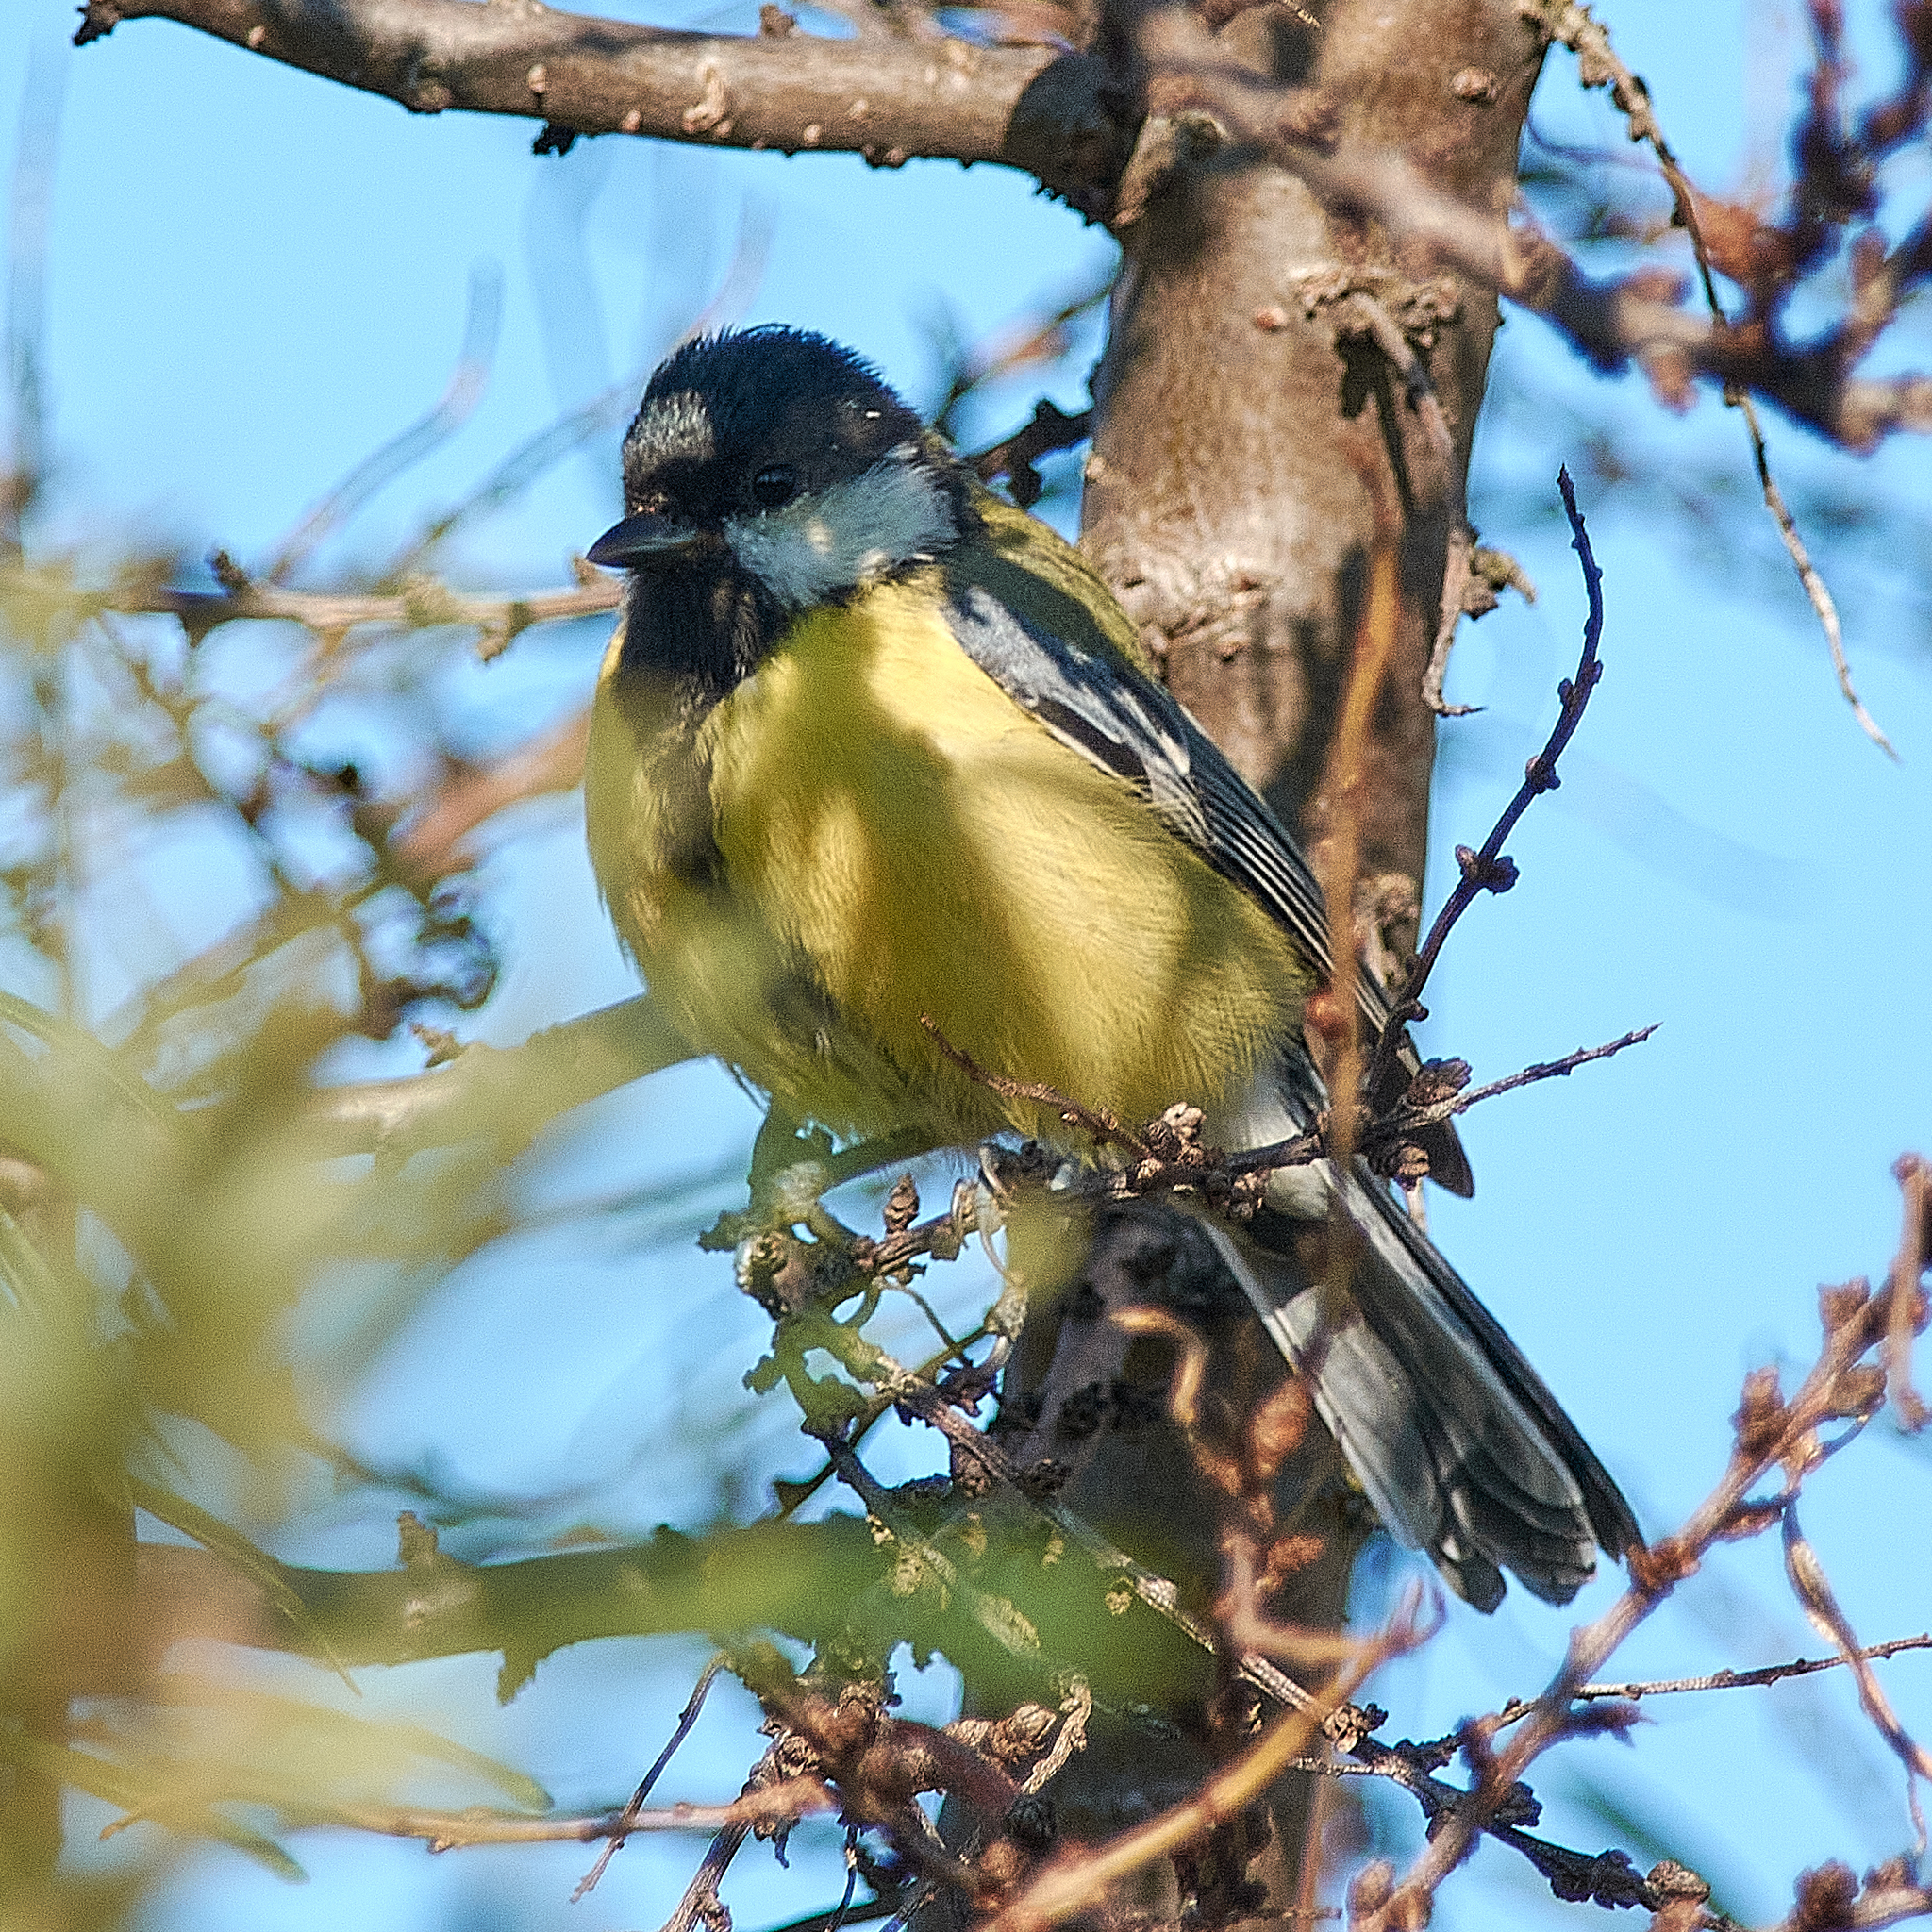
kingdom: Animalia
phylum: Chordata
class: Aves
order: Passeriformes
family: Paridae
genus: Parus
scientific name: Parus major
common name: Great tit
